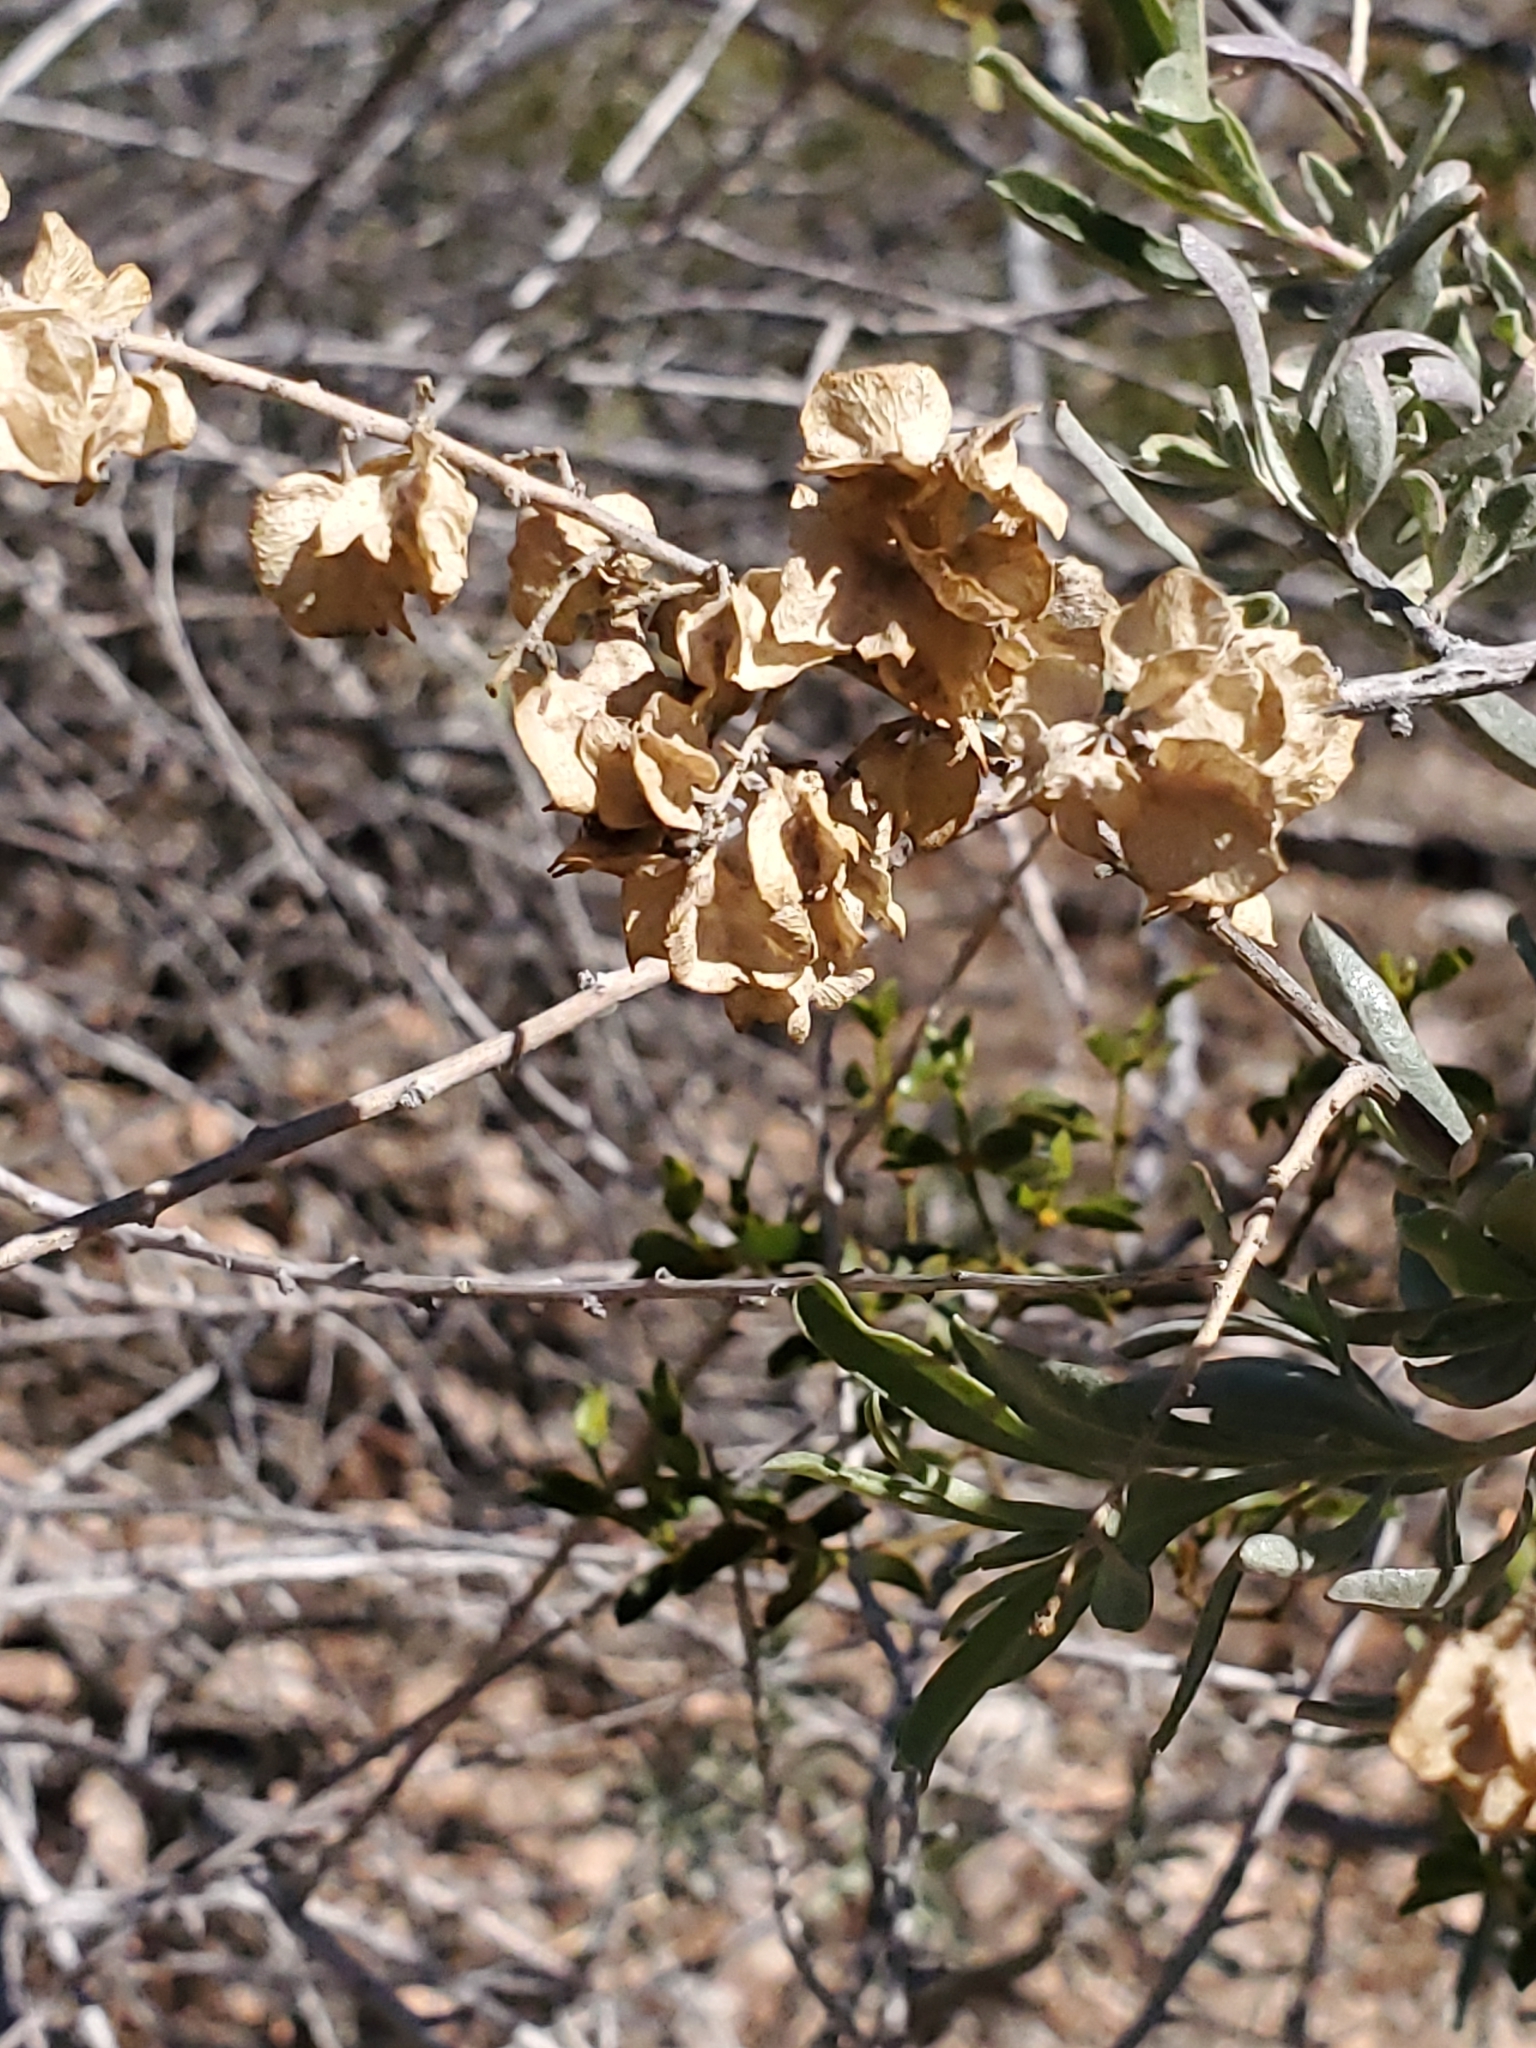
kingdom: Plantae
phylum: Tracheophyta
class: Magnoliopsida
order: Caryophyllales
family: Amaranthaceae
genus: Atriplex
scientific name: Atriplex canescens
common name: Four-wing saltbush
